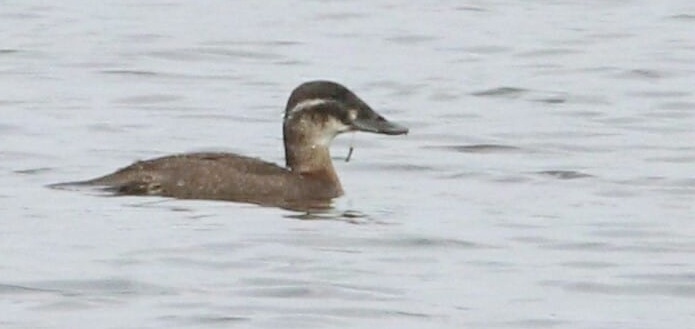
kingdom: Animalia
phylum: Chordata
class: Aves
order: Anseriformes
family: Anatidae
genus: Oxyura
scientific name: Oxyura maccoa
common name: Maccoa duck
